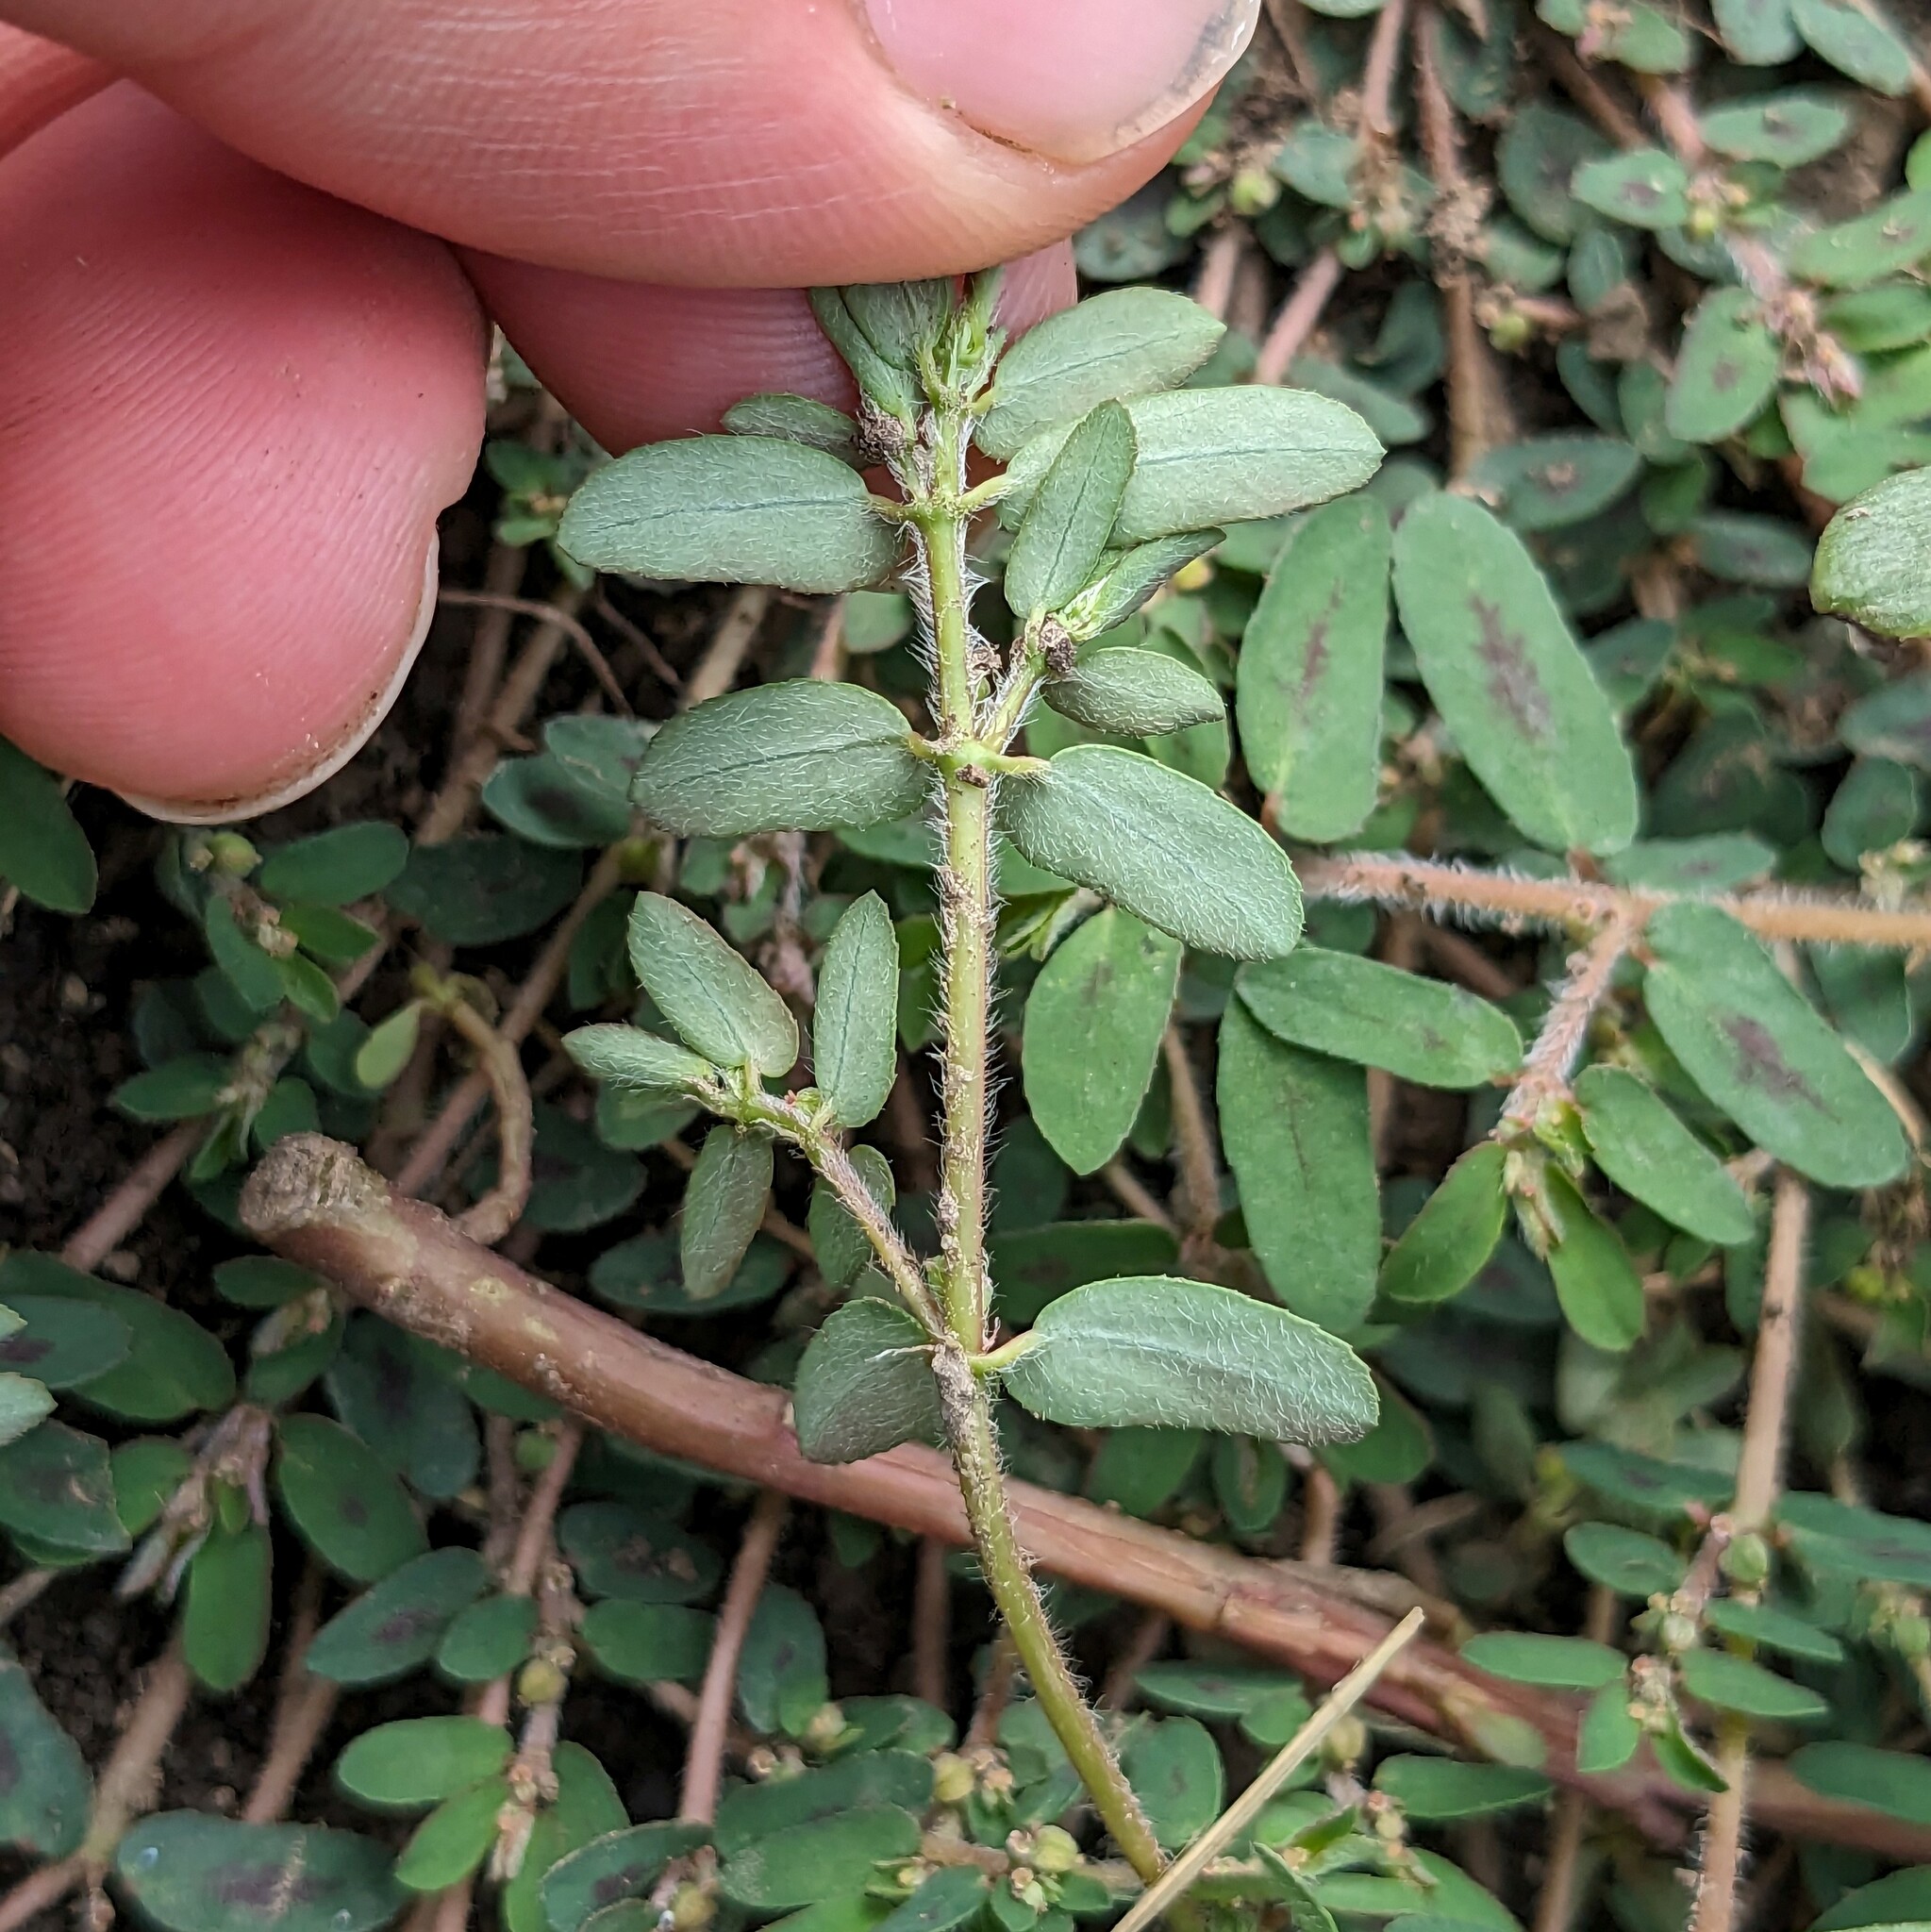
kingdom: Plantae
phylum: Tracheophyta
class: Magnoliopsida
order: Malpighiales
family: Euphorbiaceae
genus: Euphorbia
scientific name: Euphorbia maculata
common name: Spotted spurge
